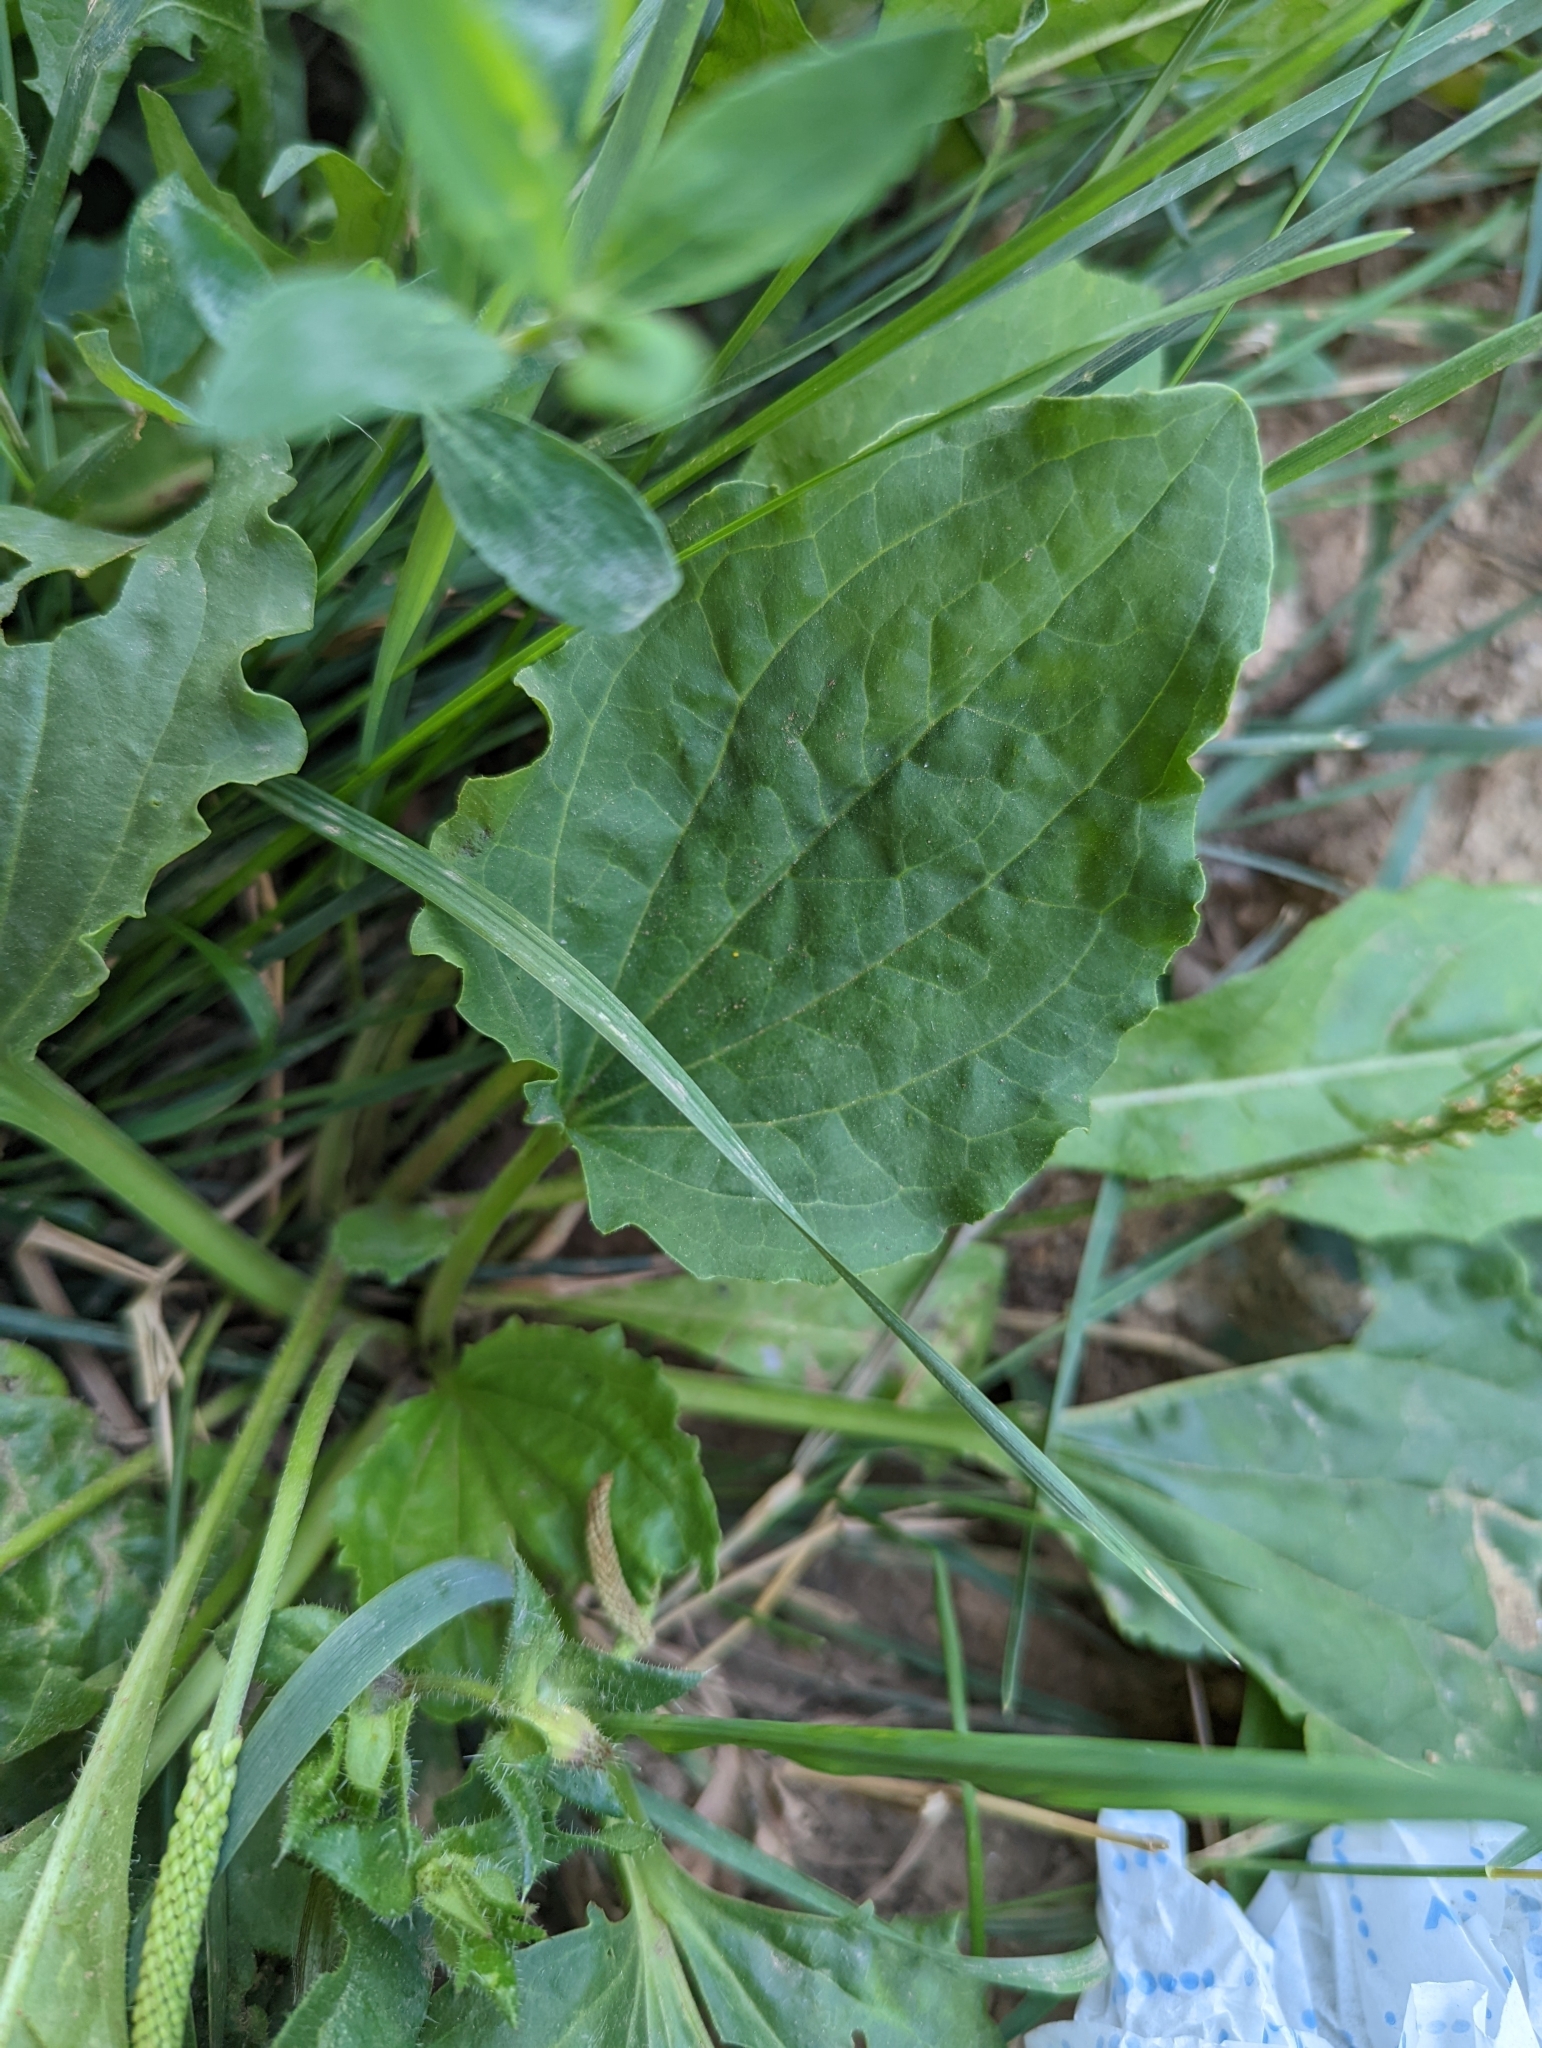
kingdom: Plantae
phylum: Tracheophyta
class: Magnoliopsida
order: Lamiales
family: Plantaginaceae
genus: Plantago
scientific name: Plantago major
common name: Common plantain
